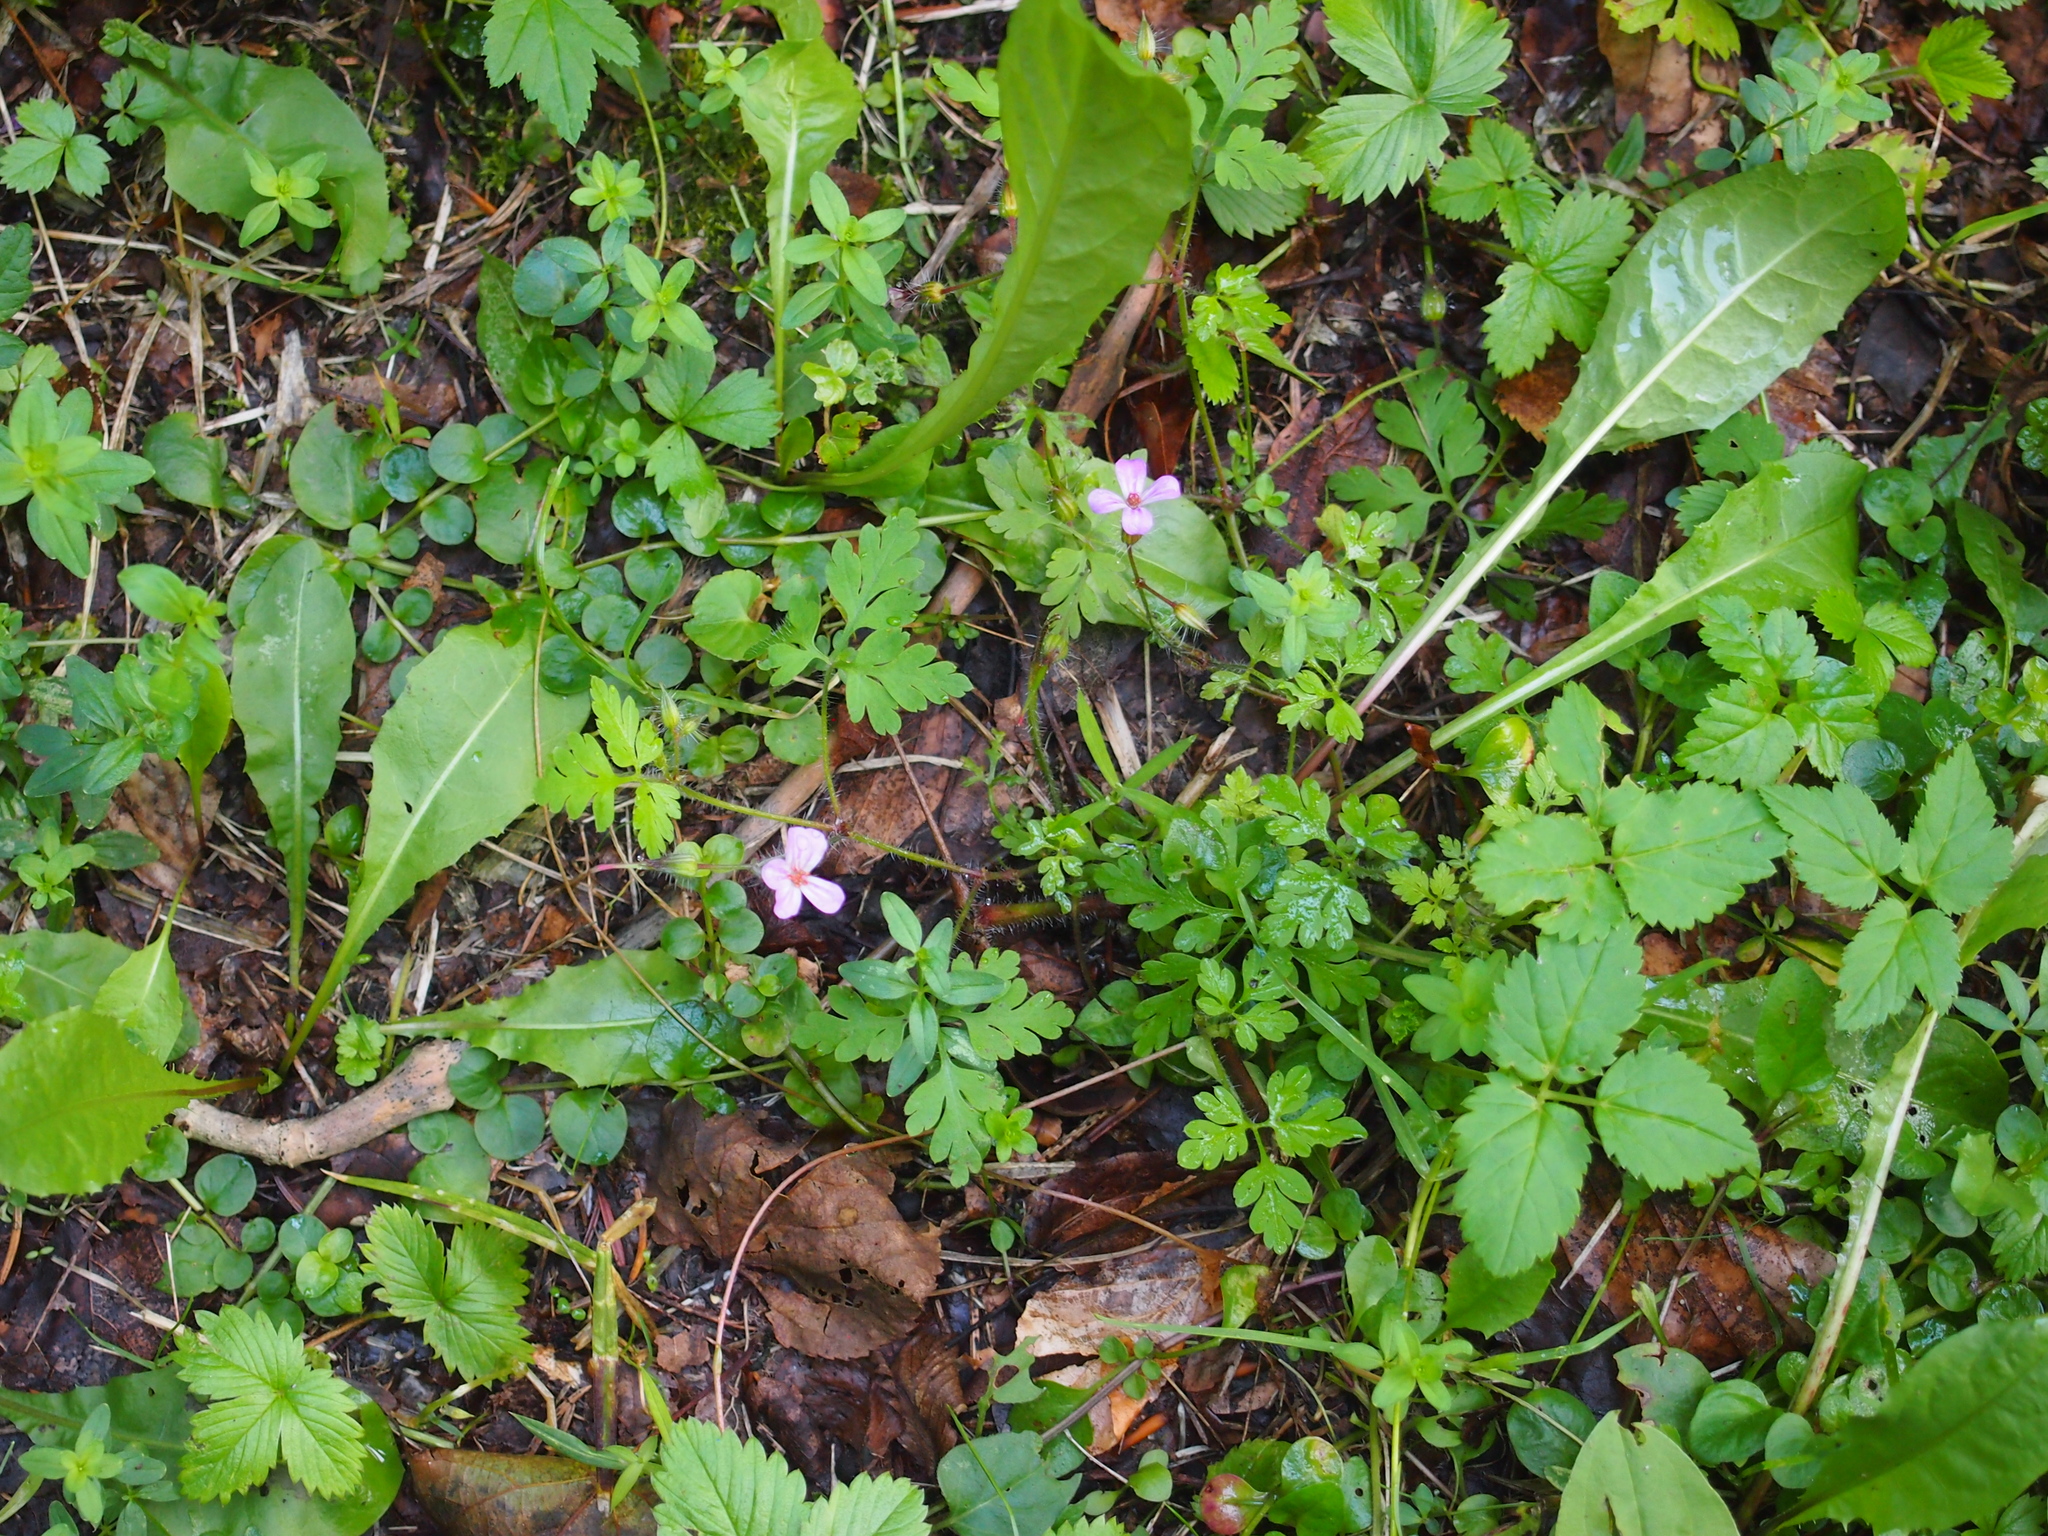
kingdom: Plantae
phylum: Tracheophyta
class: Magnoliopsida
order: Geraniales
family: Geraniaceae
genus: Geranium
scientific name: Geranium robertianum
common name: Herb-robert
